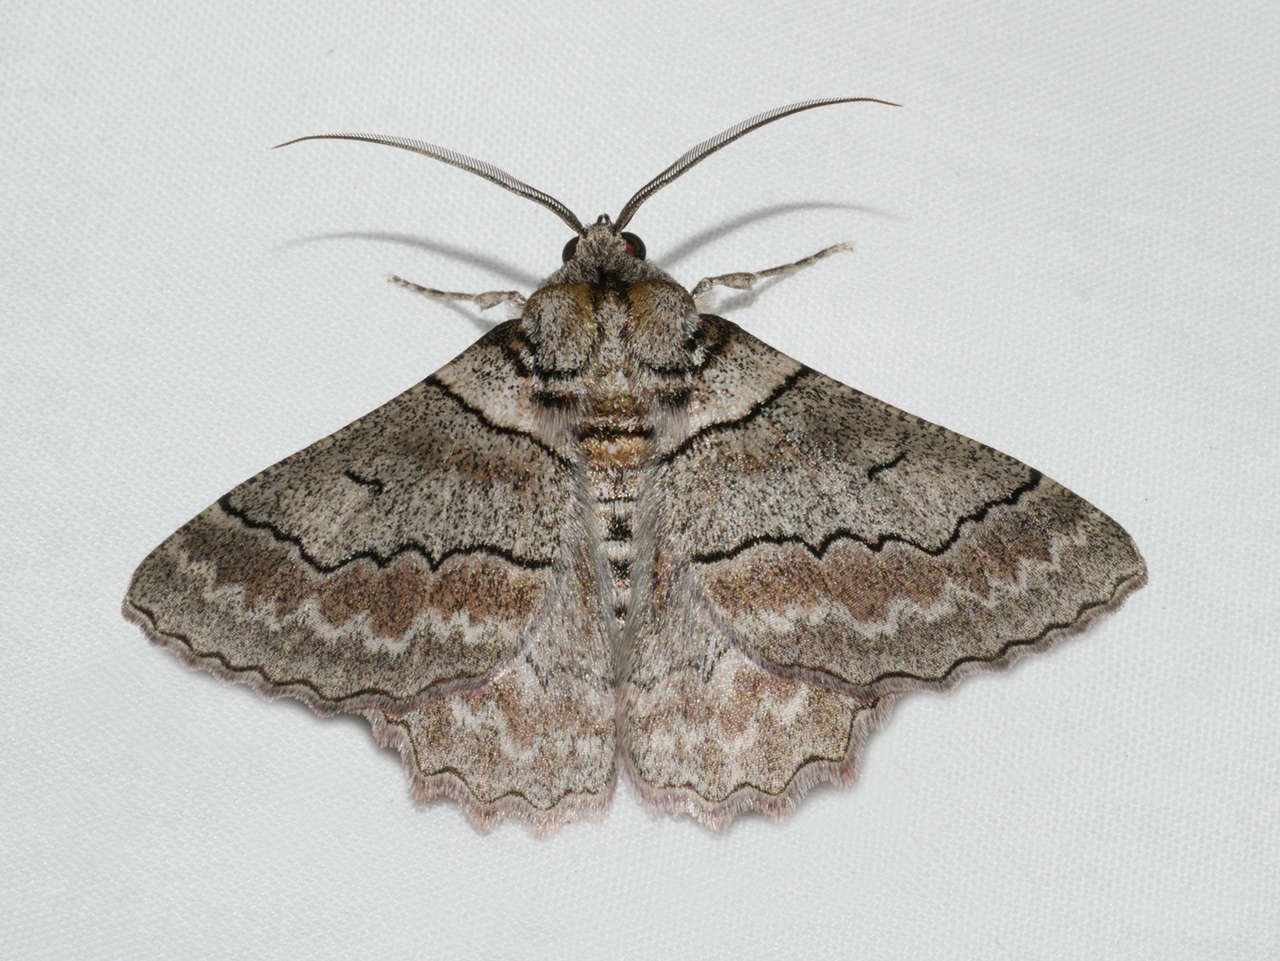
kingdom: Animalia
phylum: Arthropoda
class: Insecta
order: Lepidoptera
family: Geometridae
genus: Hypobapta
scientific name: Hypobapta tachyhalotaria
